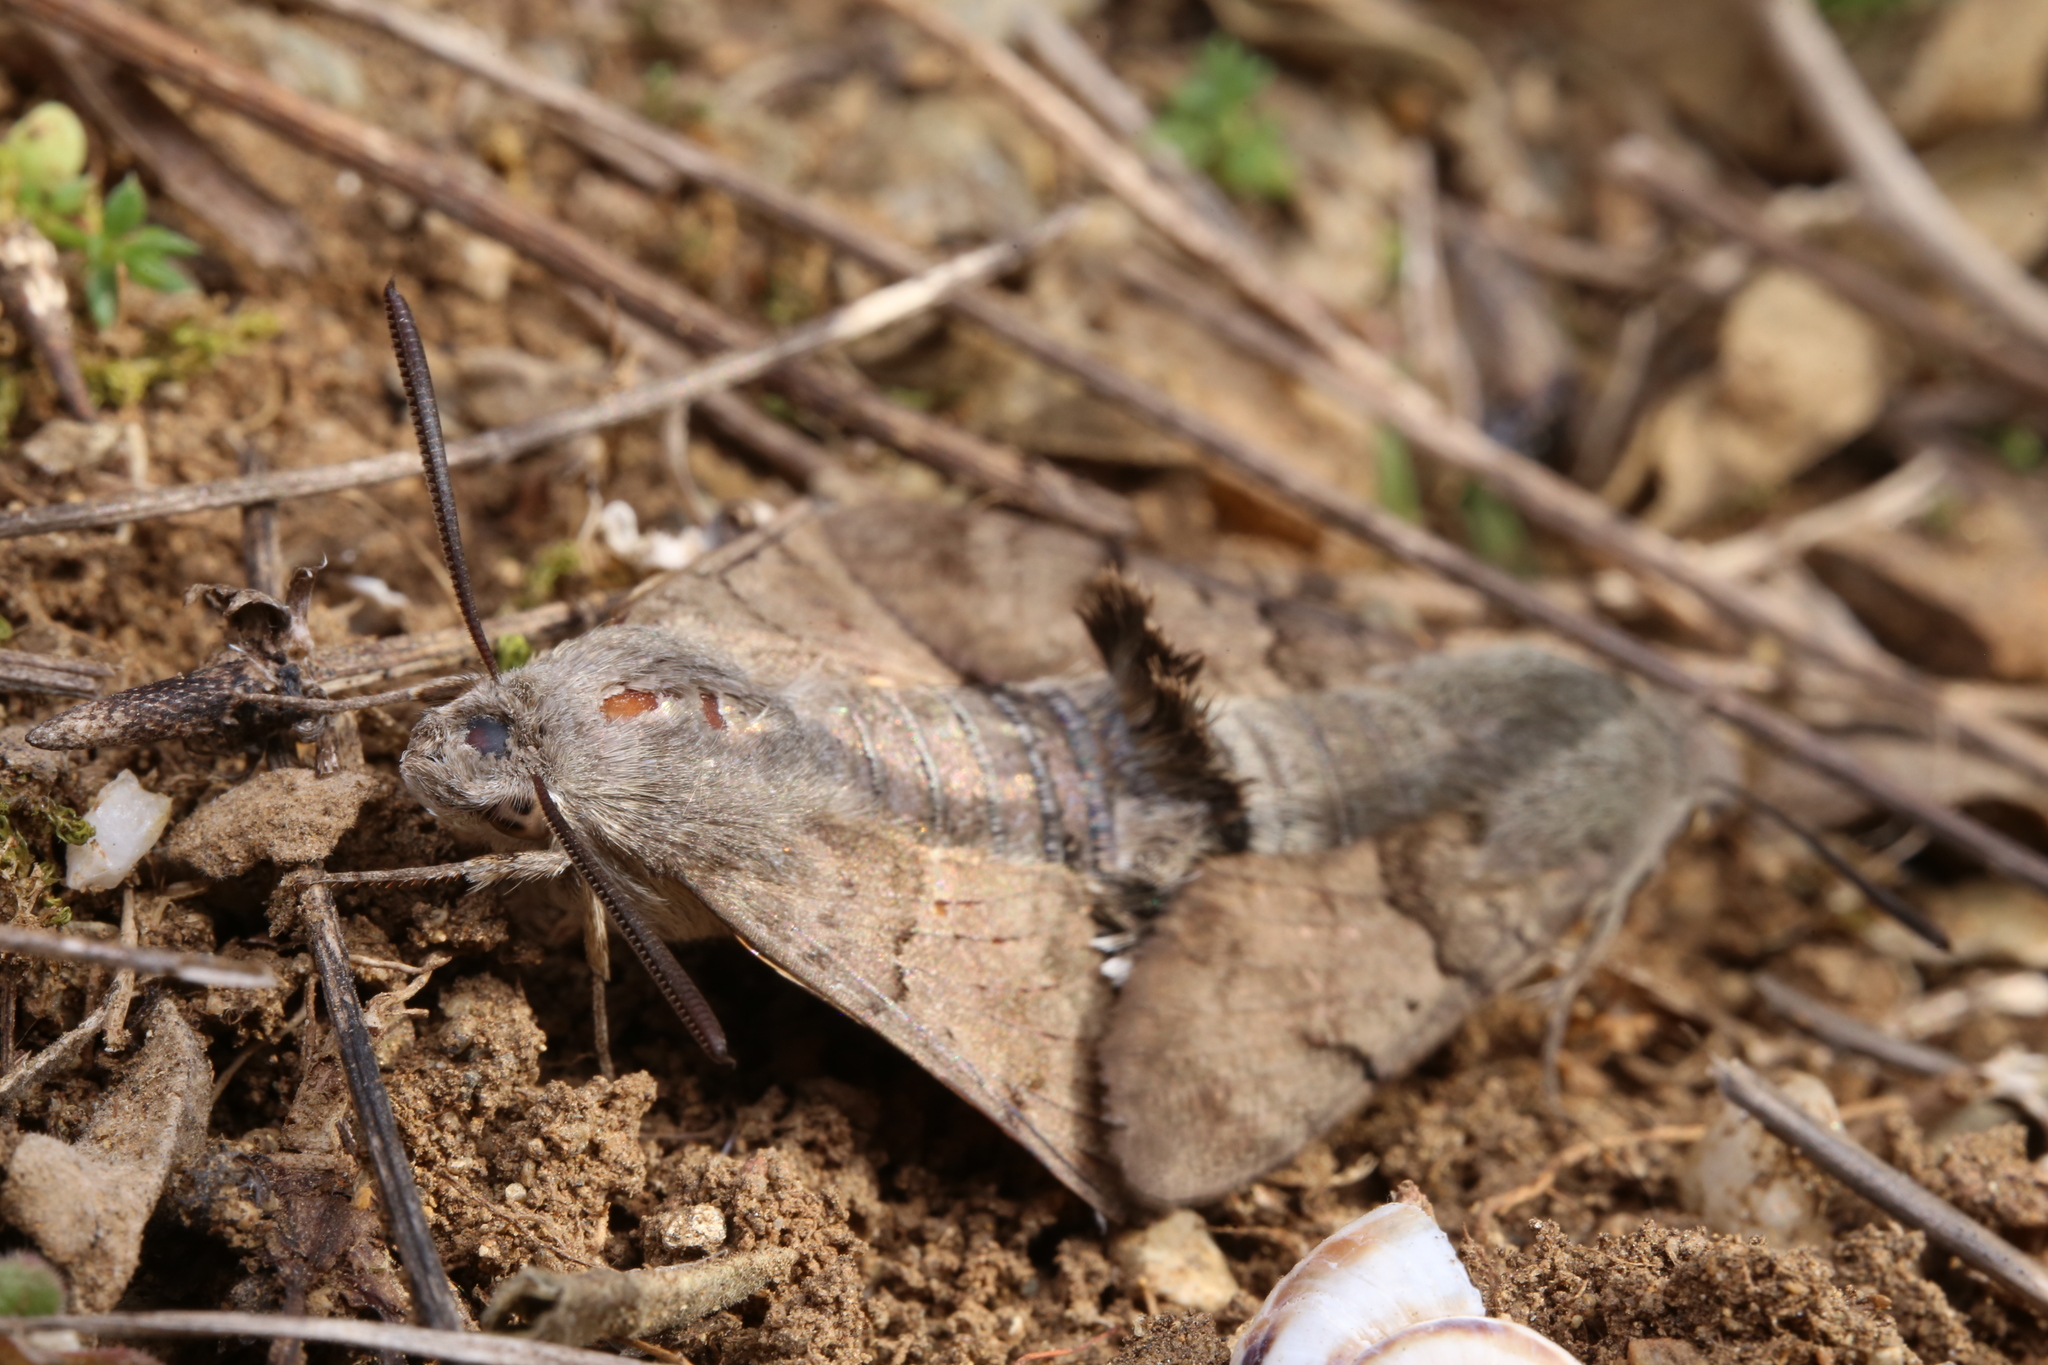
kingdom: Animalia
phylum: Arthropoda
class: Insecta
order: Lepidoptera
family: Sphingidae
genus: Macroglossum
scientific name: Macroglossum stellatarum
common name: Humming-bird hawk-moth
